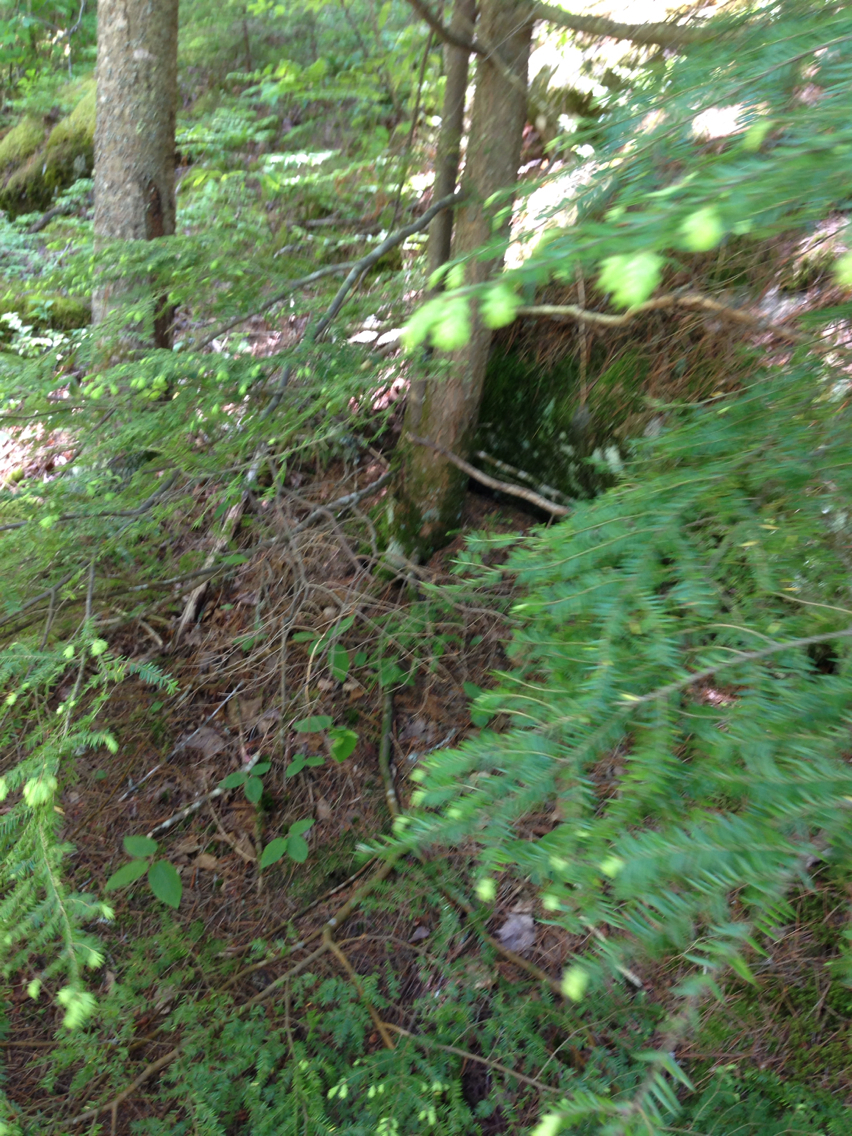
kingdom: Plantae
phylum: Tracheophyta
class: Pinopsida
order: Pinales
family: Pinaceae
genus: Tsuga
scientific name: Tsuga canadensis
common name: Eastern hemlock
